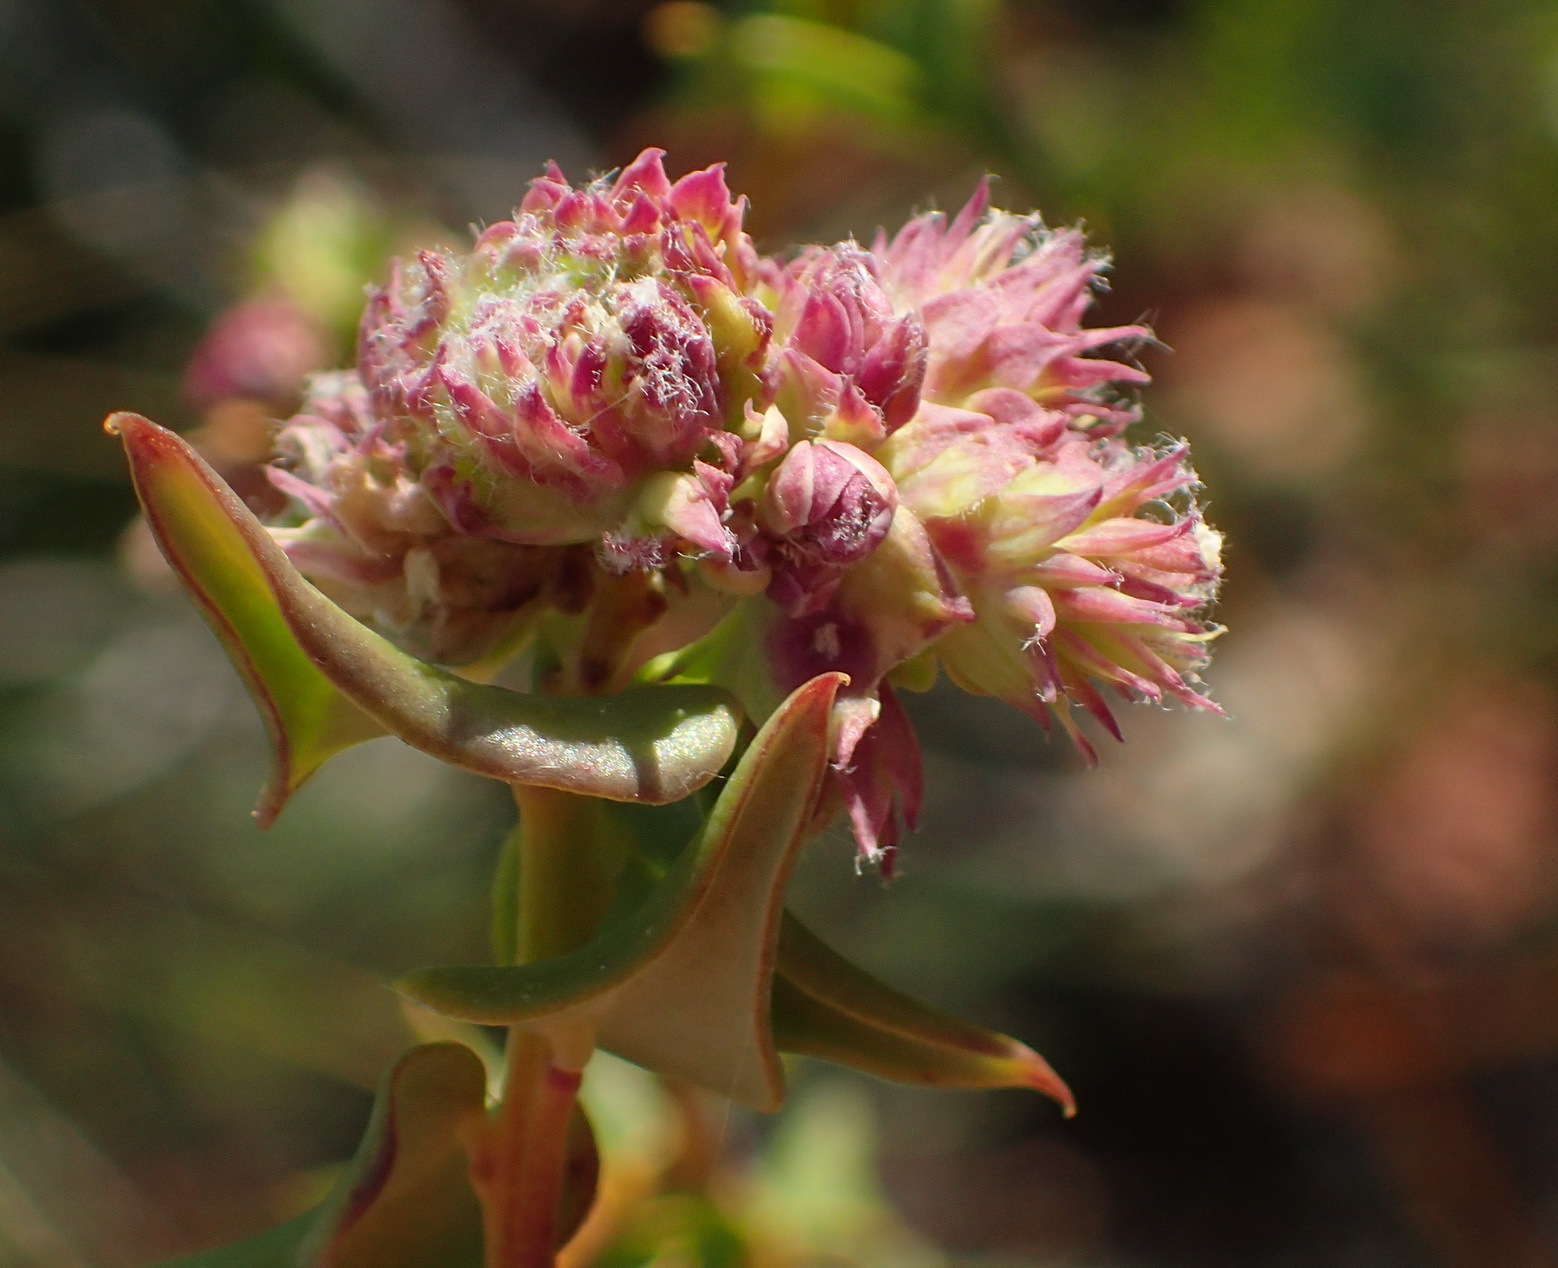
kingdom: Plantae
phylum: Tracheophyta
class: Magnoliopsida
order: Fabales
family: Polygalaceae
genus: Polygala
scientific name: Polygala fruticosa
